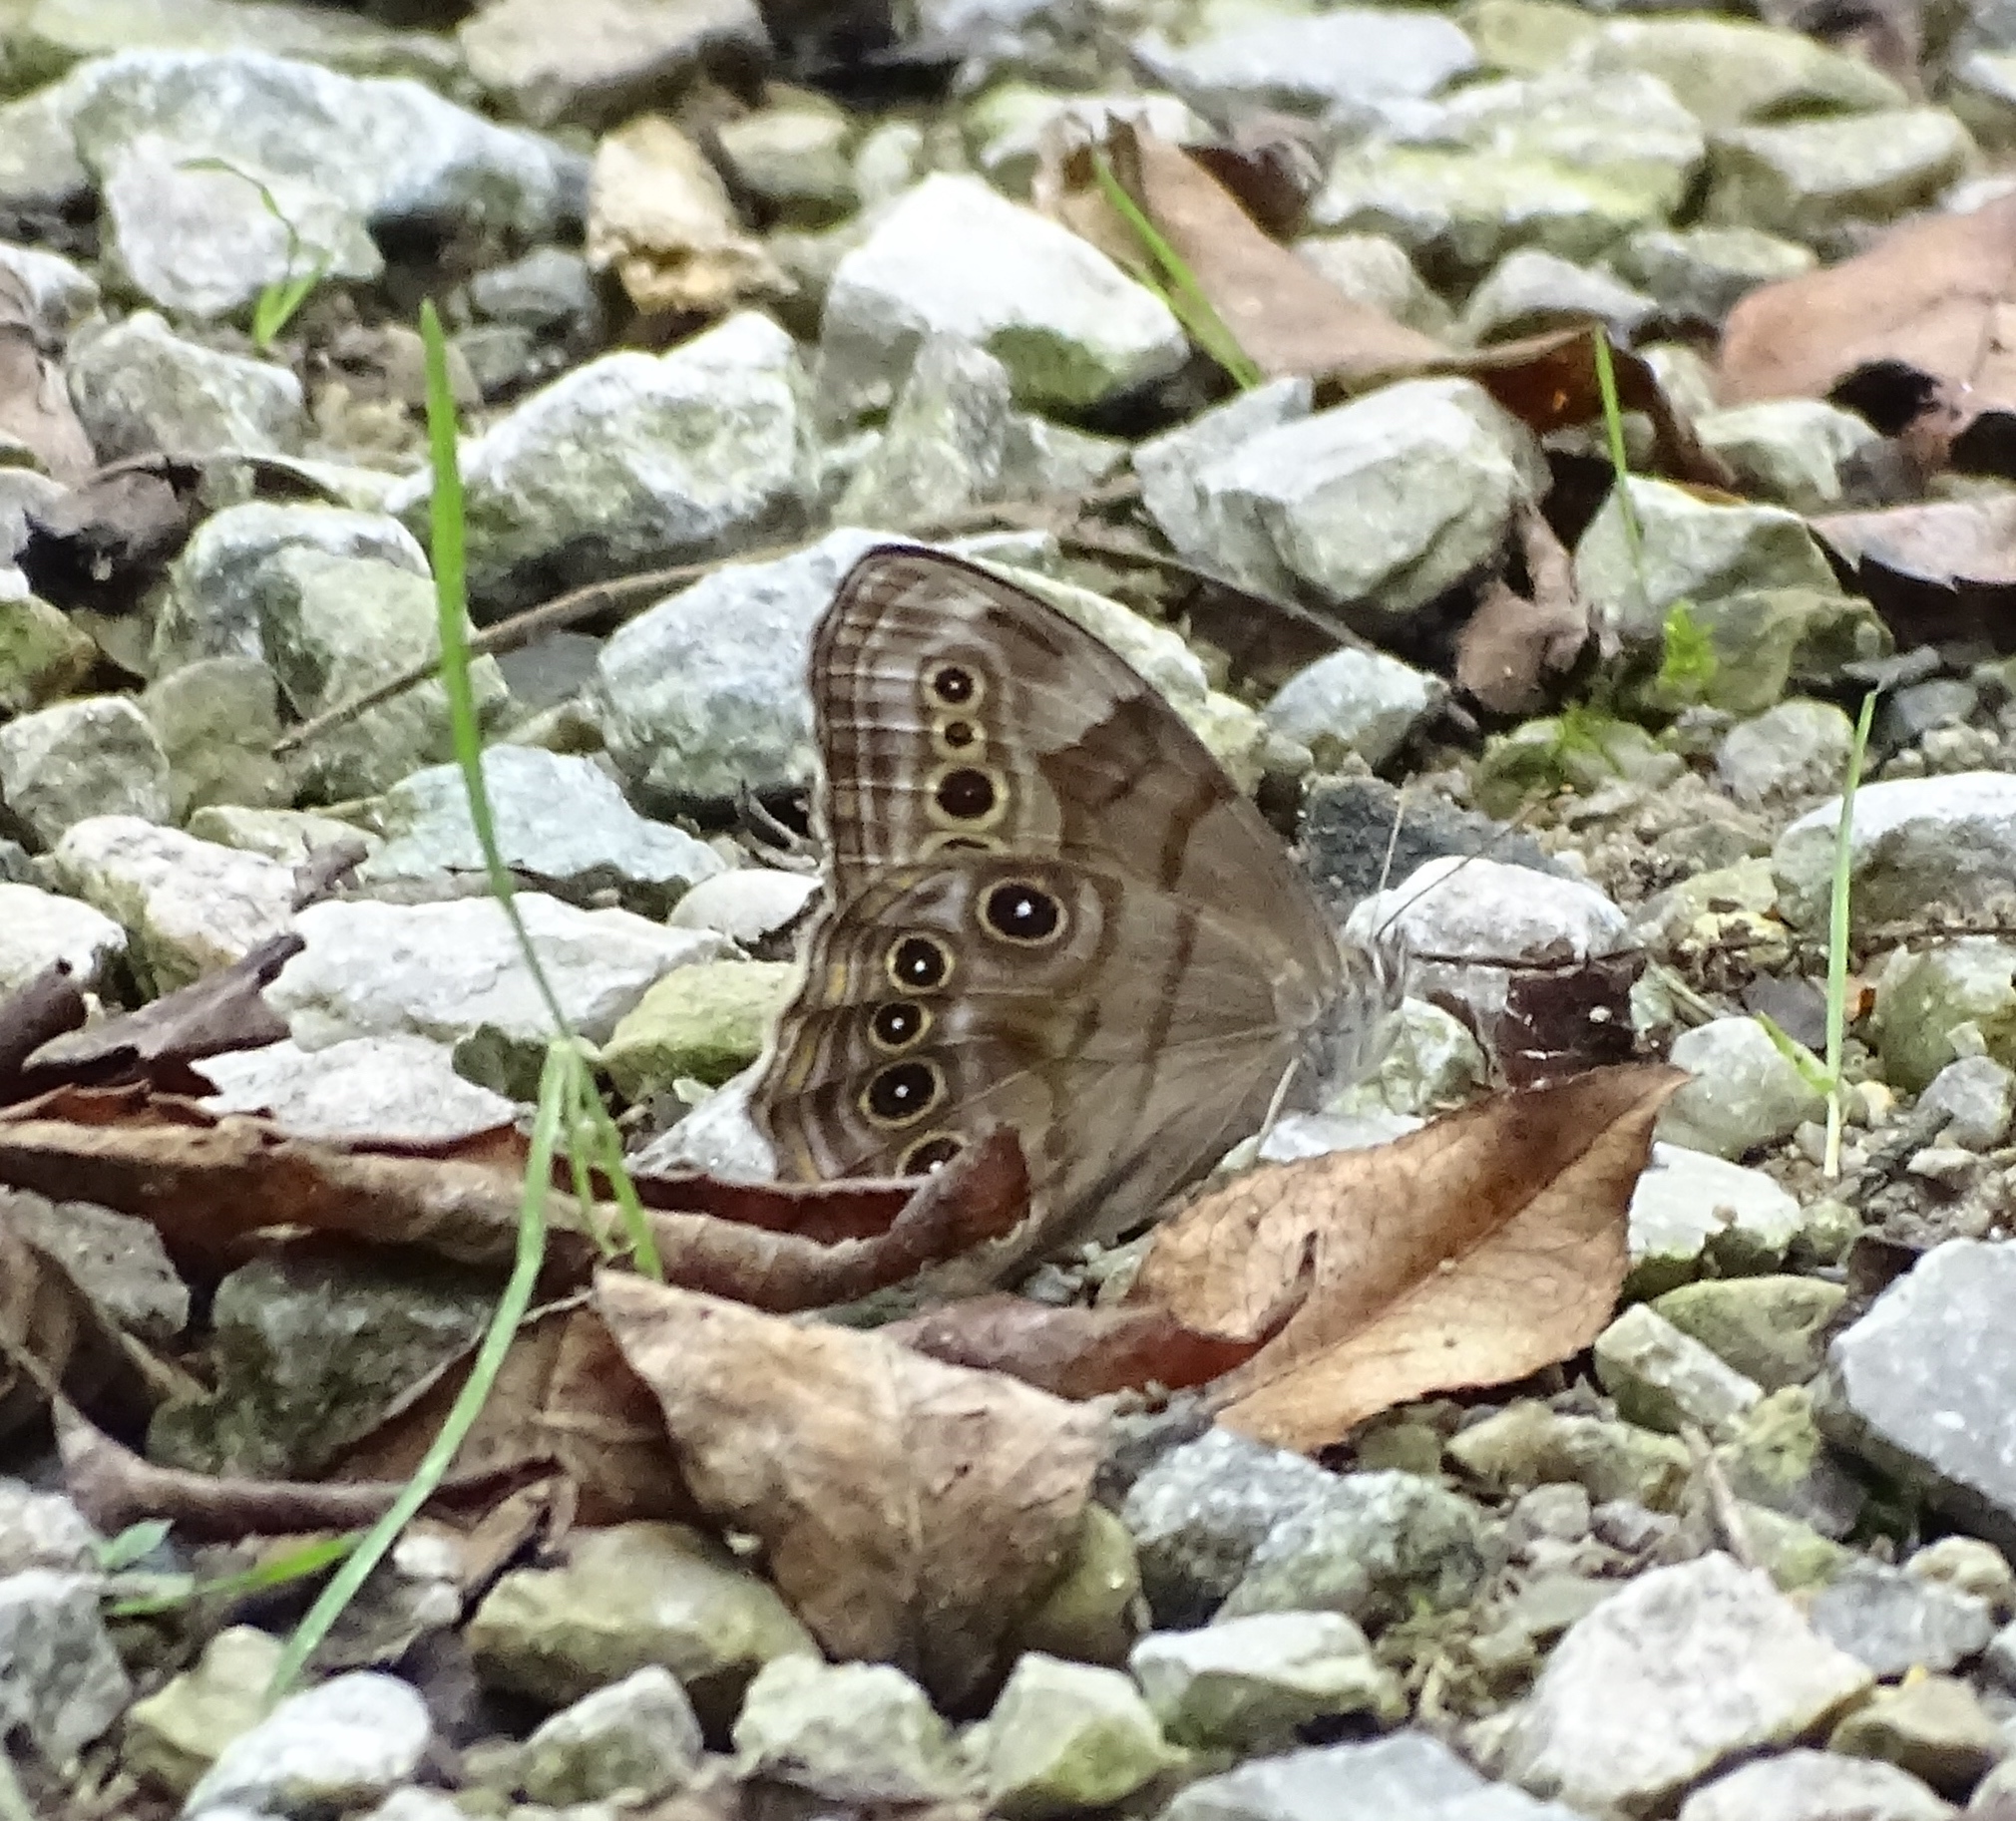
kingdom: Animalia
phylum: Arthropoda
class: Insecta
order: Lepidoptera
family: Nymphalidae
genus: Lethe
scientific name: Lethe anthedon
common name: Northern pearly-eye
